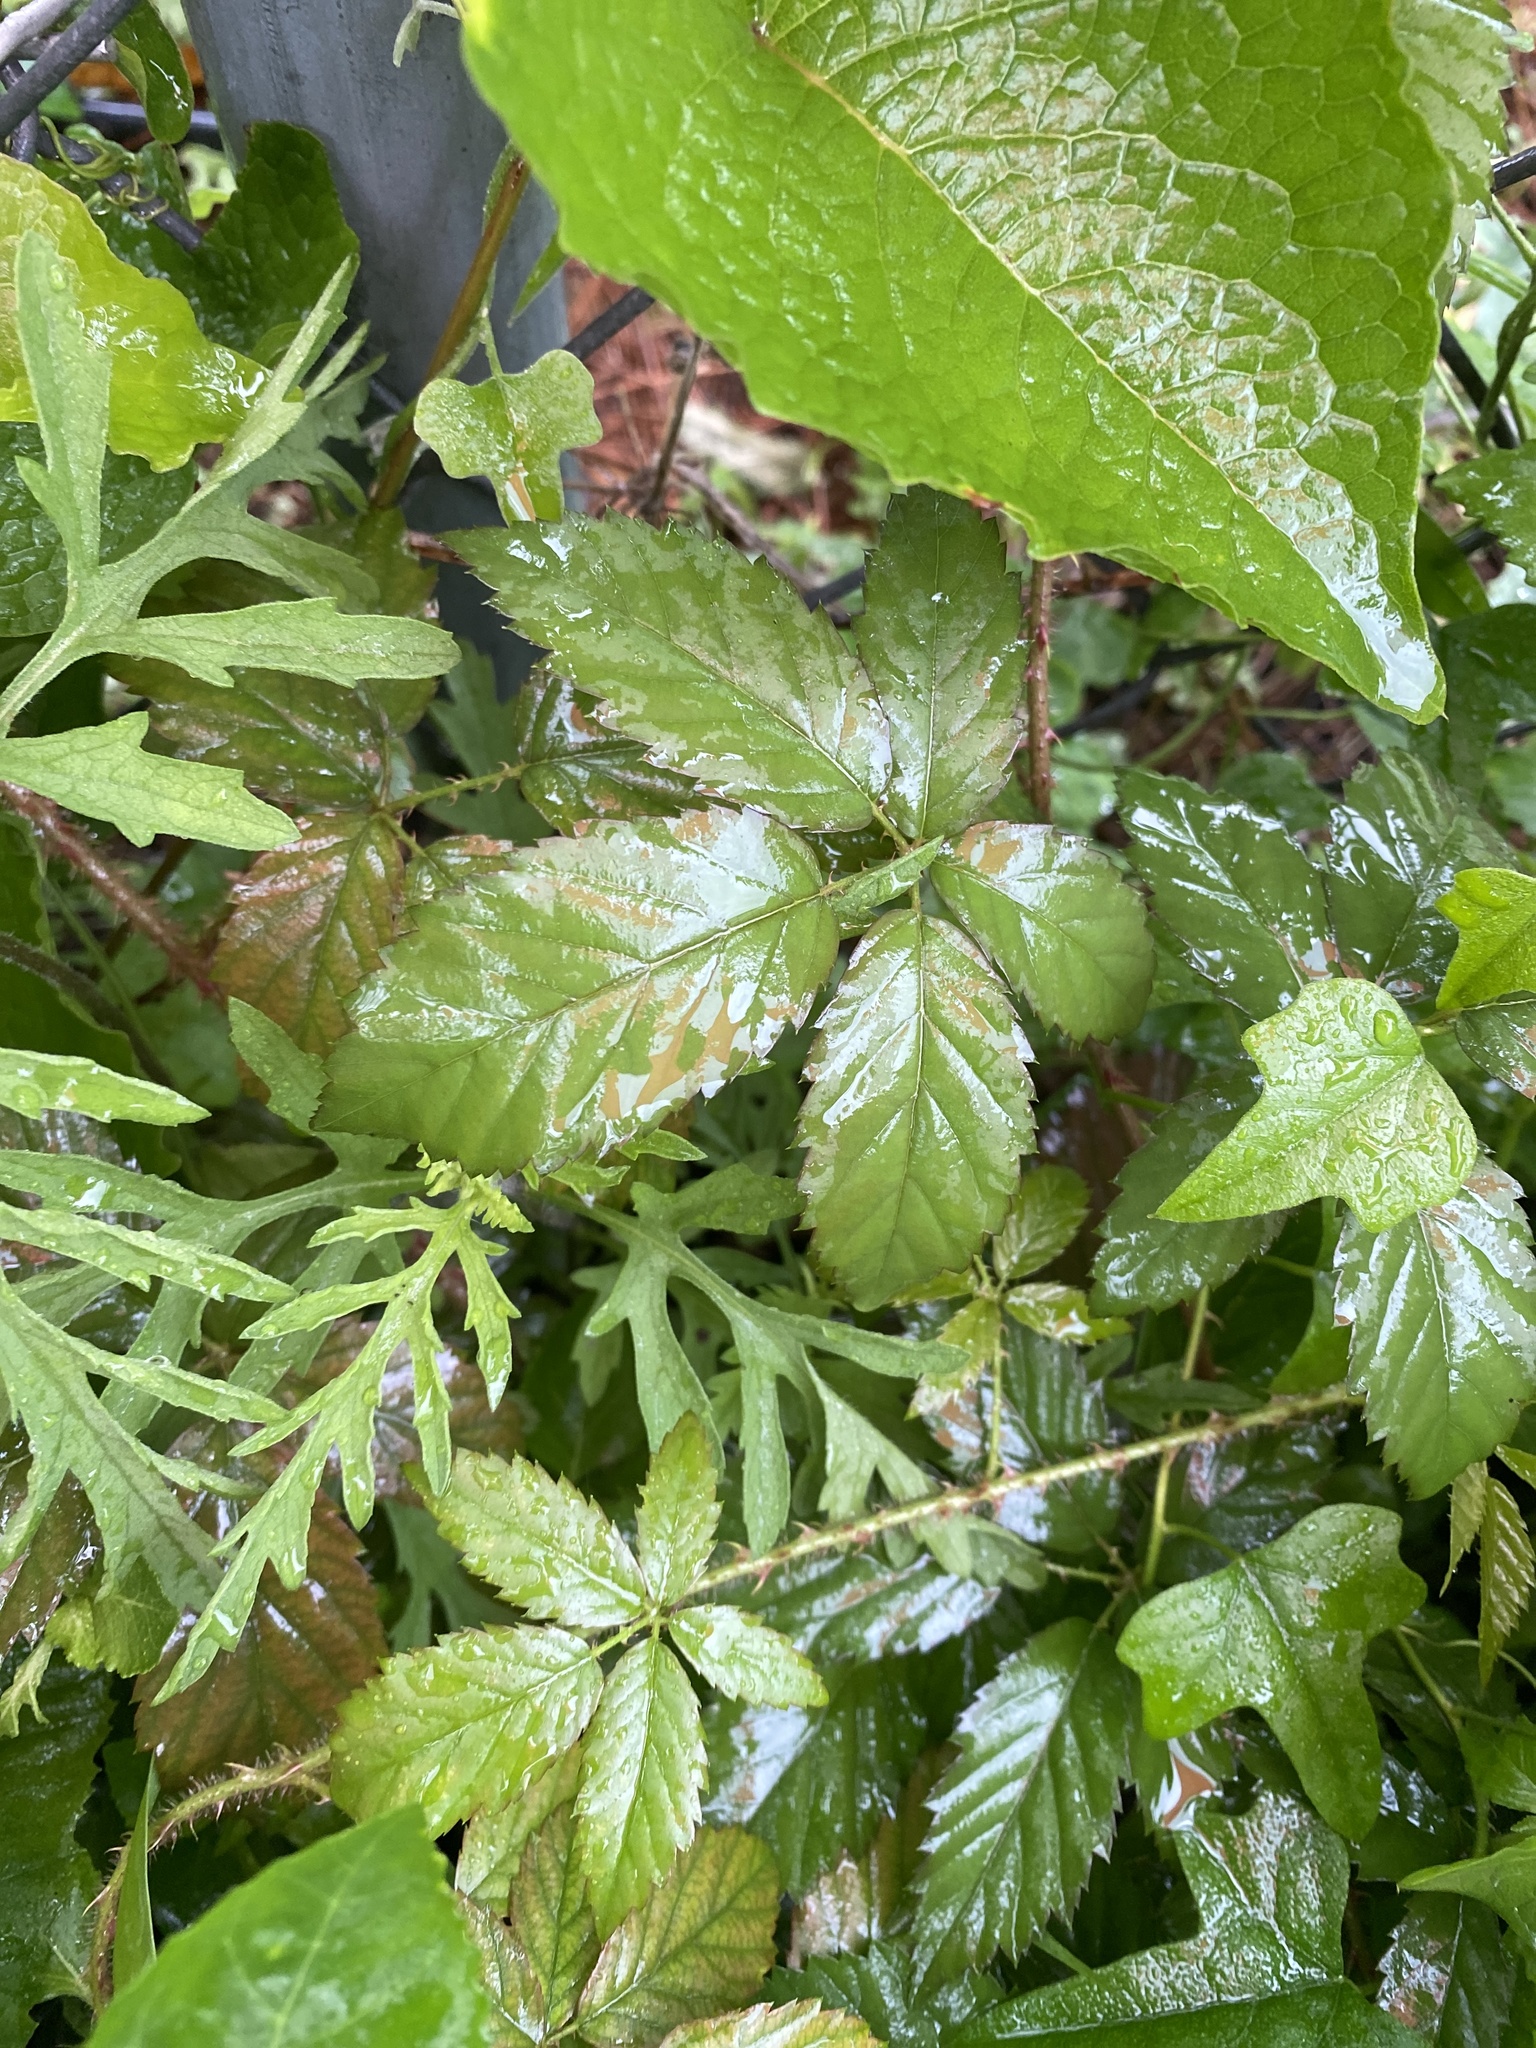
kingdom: Plantae
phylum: Tracheophyta
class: Magnoliopsida
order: Rosales
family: Rosaceae
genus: Rubus
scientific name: Rubus trivialis
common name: Southern dewberry
